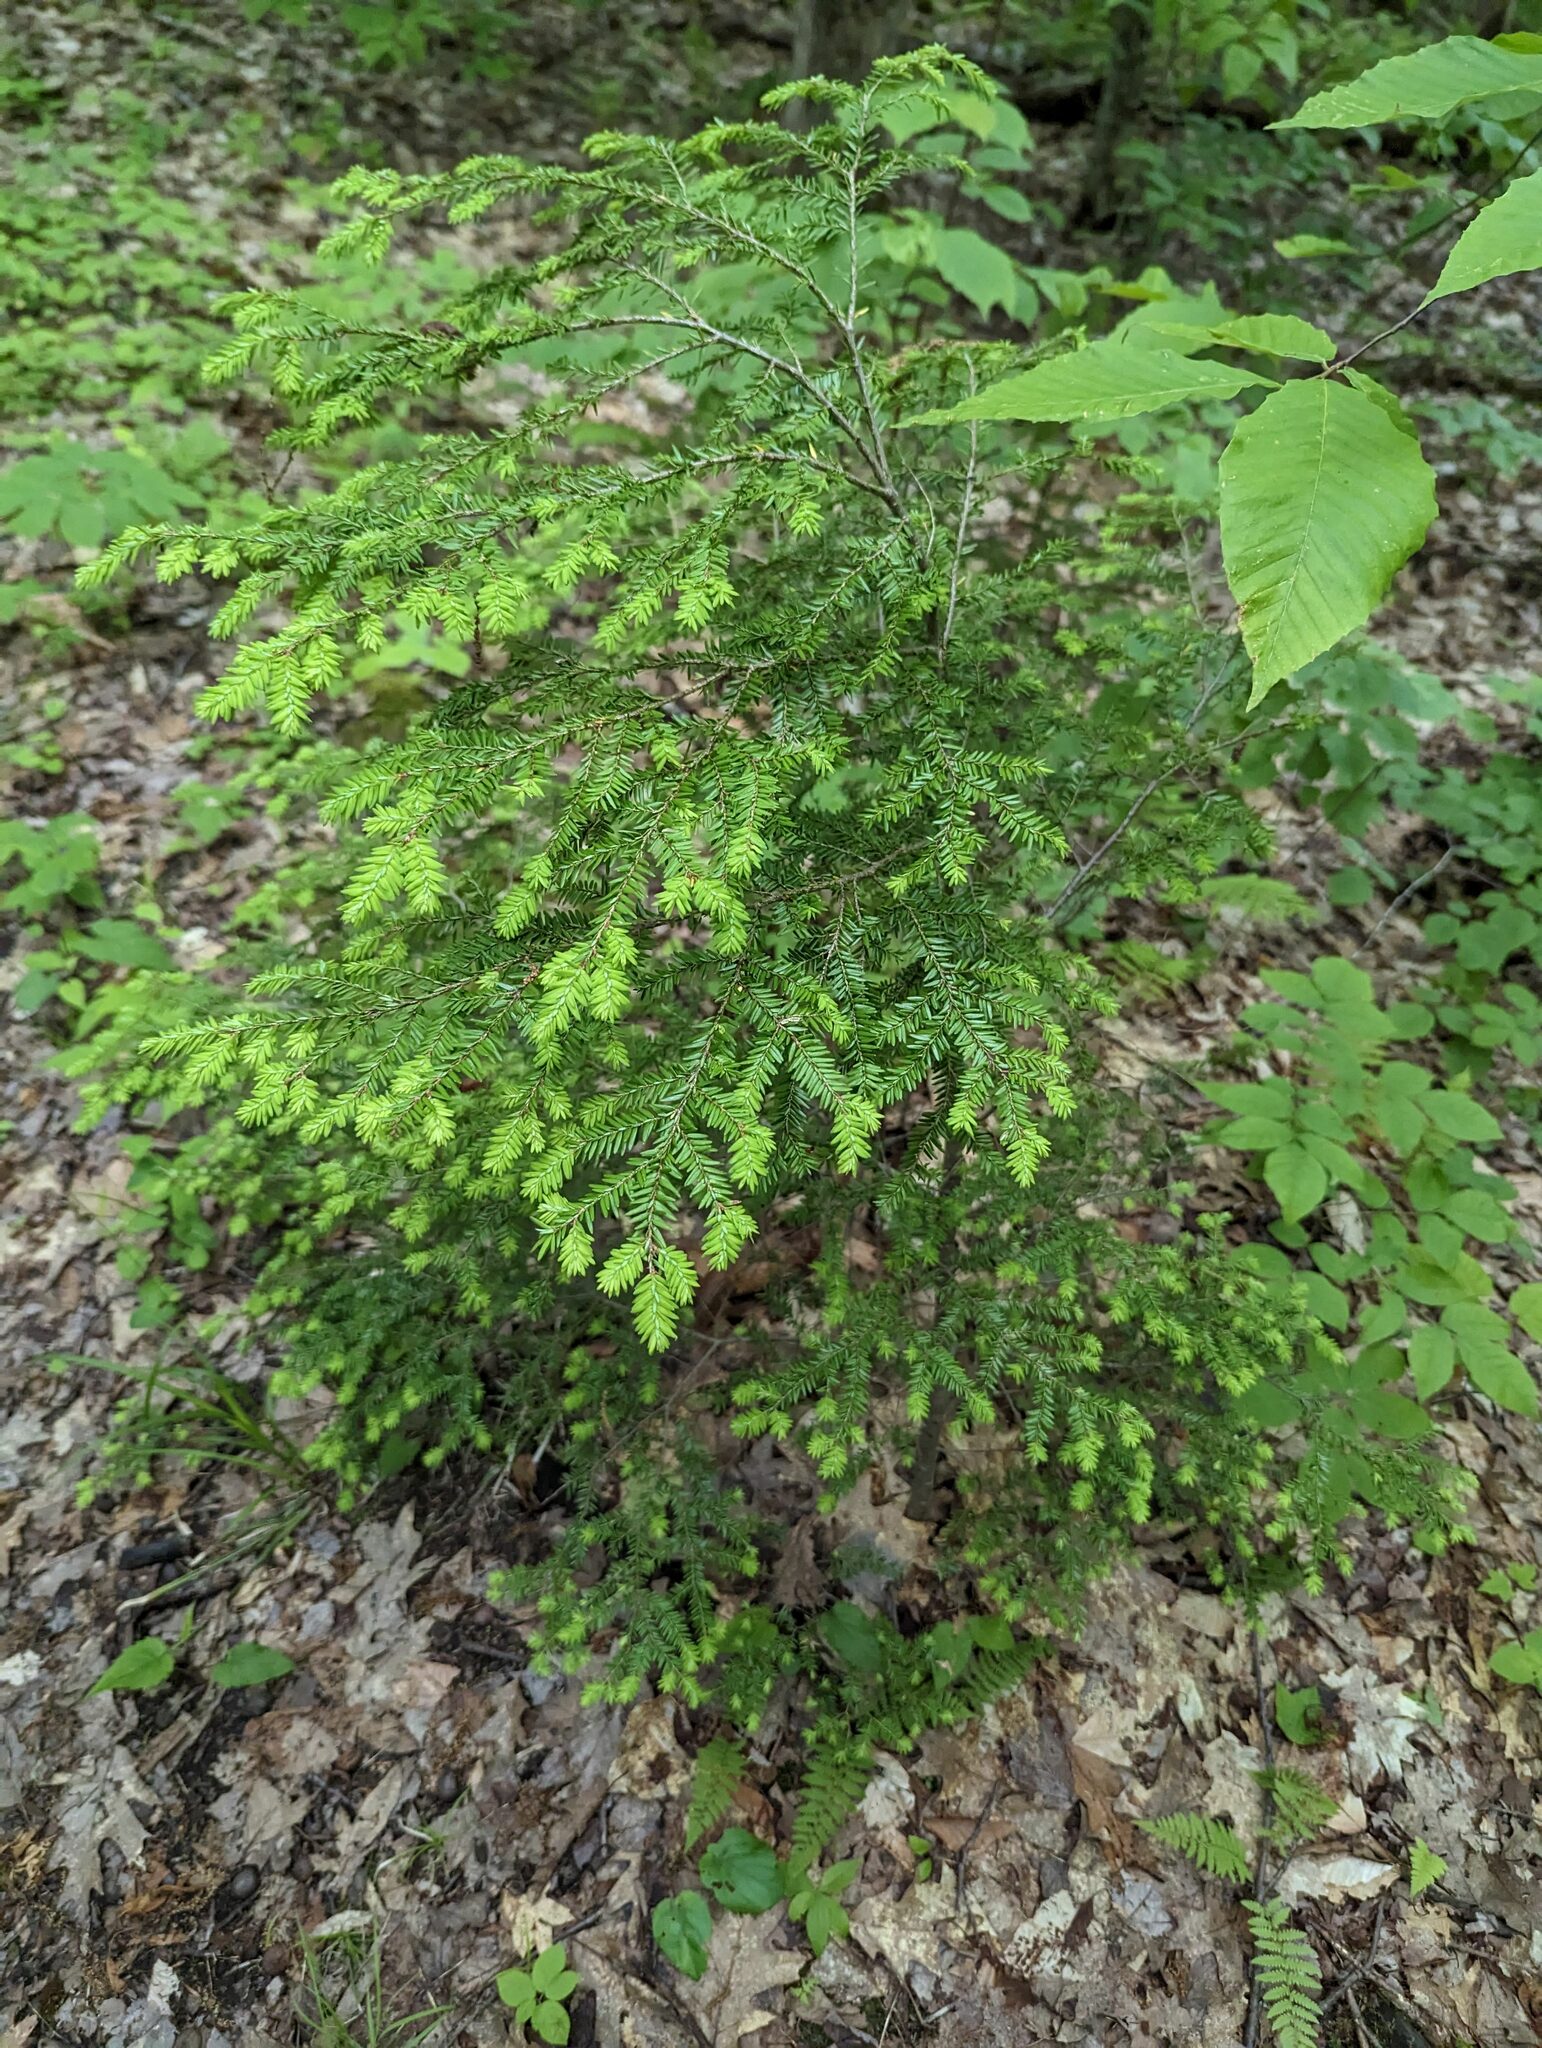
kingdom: Plantae
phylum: Tracheophyta
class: Pinopsida
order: Pinales
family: Pinaceae
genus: Tsuga
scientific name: Tsuga canadensis
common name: Eastern hemlock
